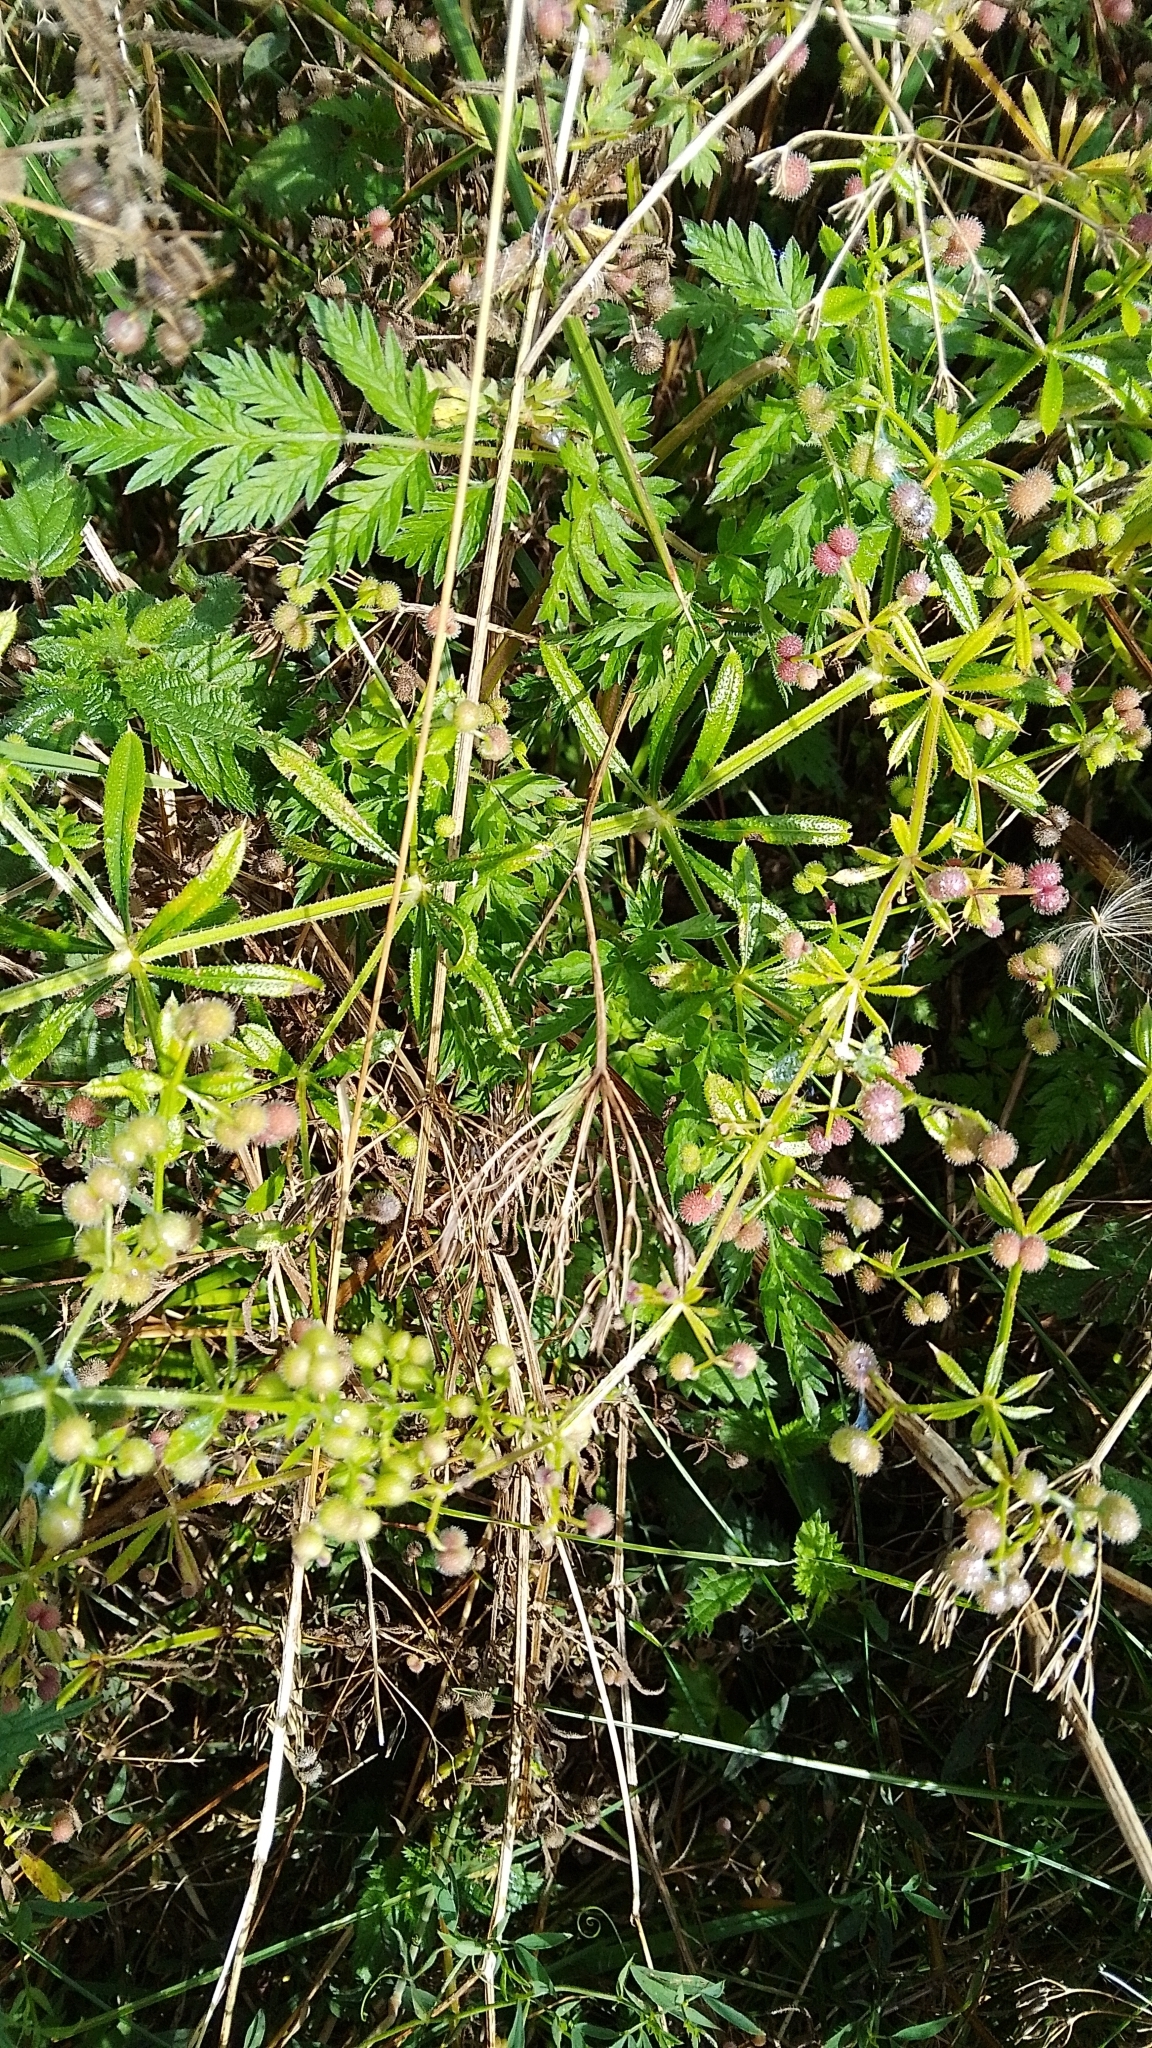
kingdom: Plantae
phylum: Tracheophyta
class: Magnoliopsida
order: Gentianales
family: Rubiaceae
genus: Galium
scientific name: Galium aparine
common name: Cleavers
